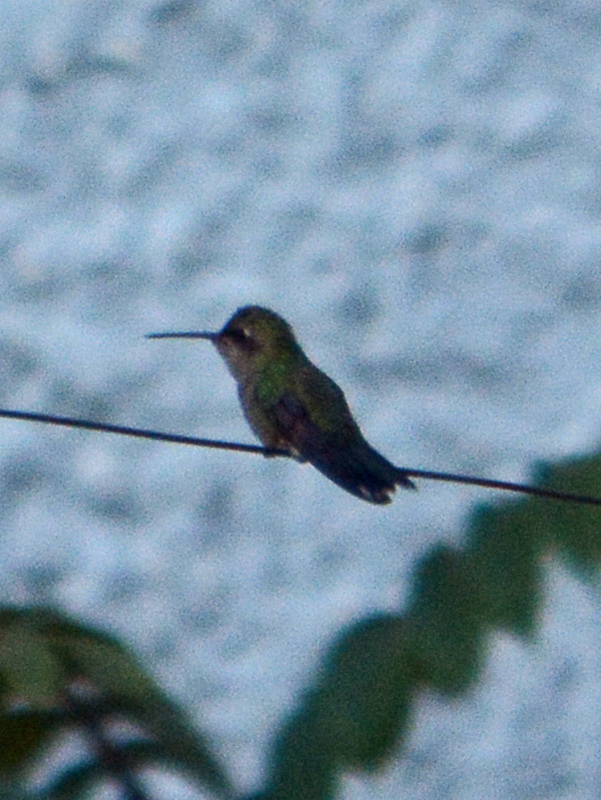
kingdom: Animalia
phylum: Chordata
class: Aves
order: Apodiformes
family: Trochilidae
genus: Cynanthus
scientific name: Cynanthus latirostris
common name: Broad-billed hummingbird
